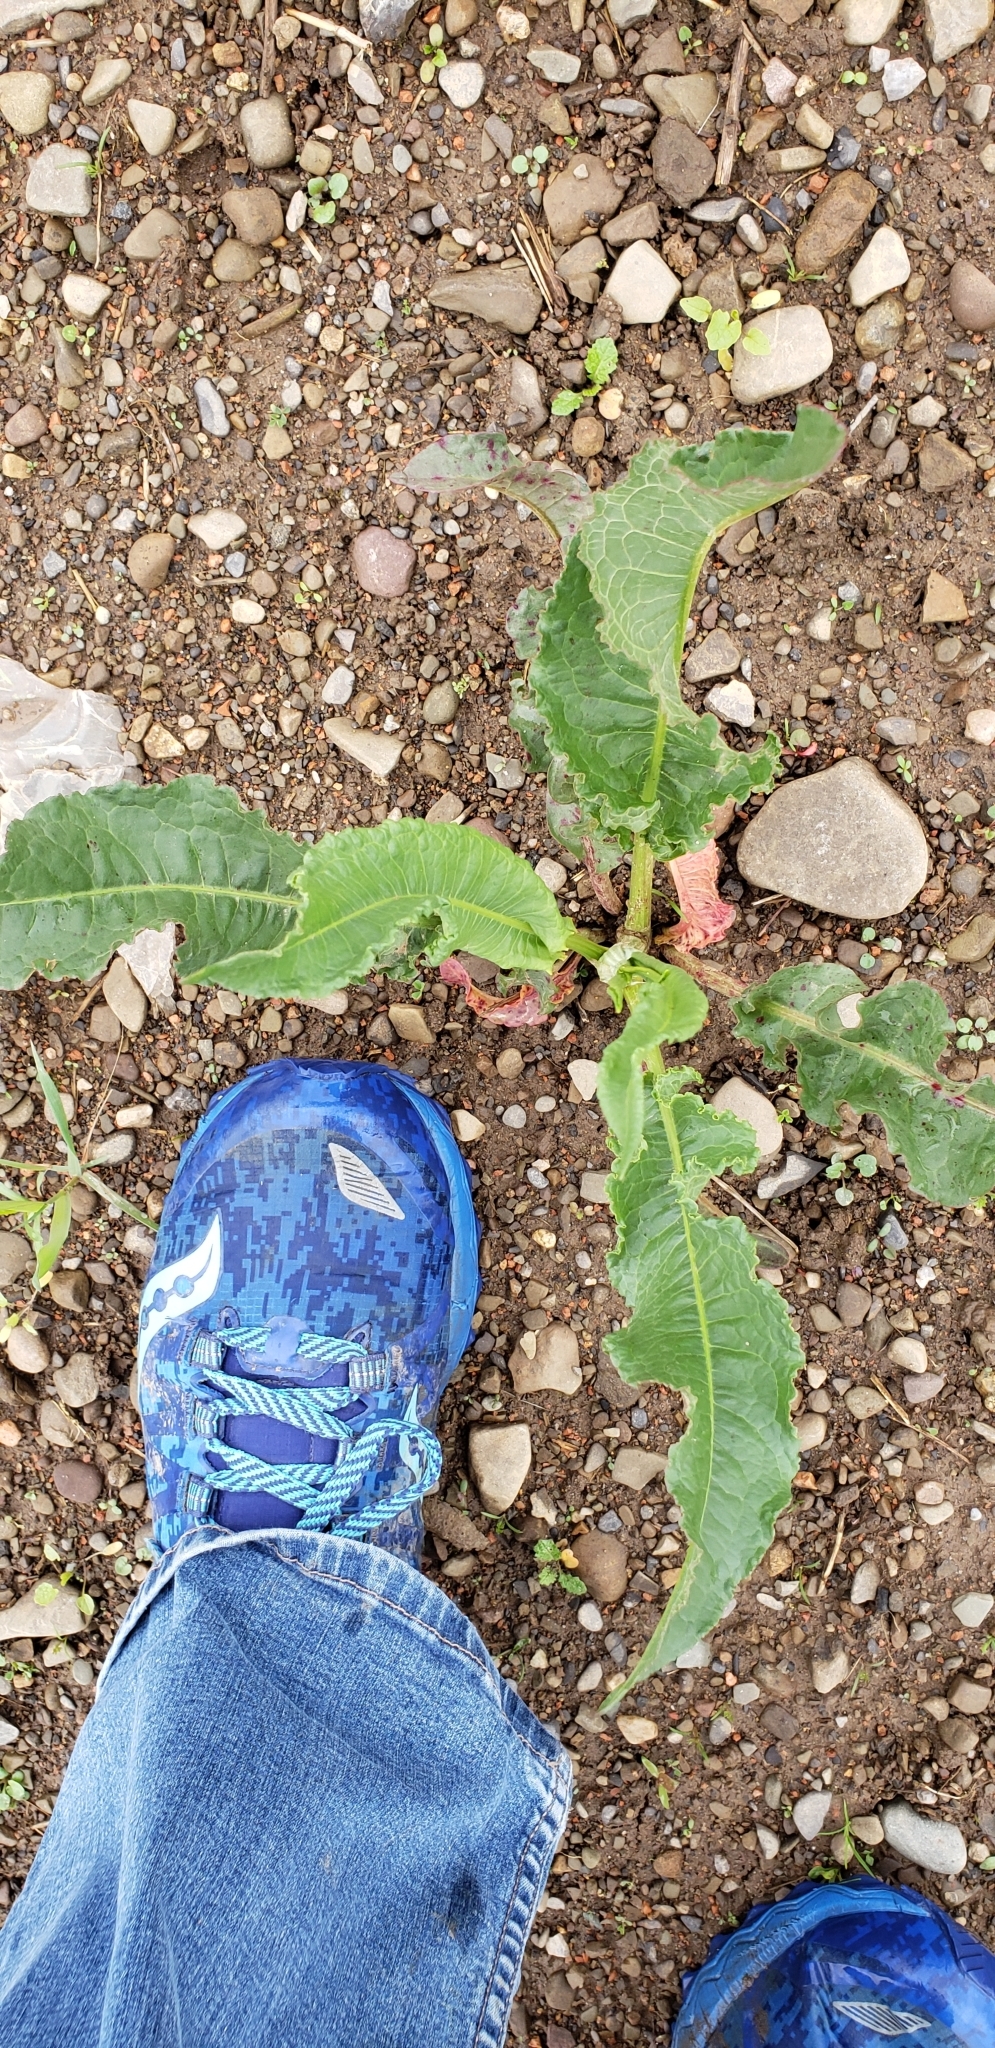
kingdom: Plantae
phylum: Tracheophyta
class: Magnoliopsida
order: Caryophyllales
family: Polygonaceae
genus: Rumex
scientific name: Rumex crispus
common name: Curled dock
